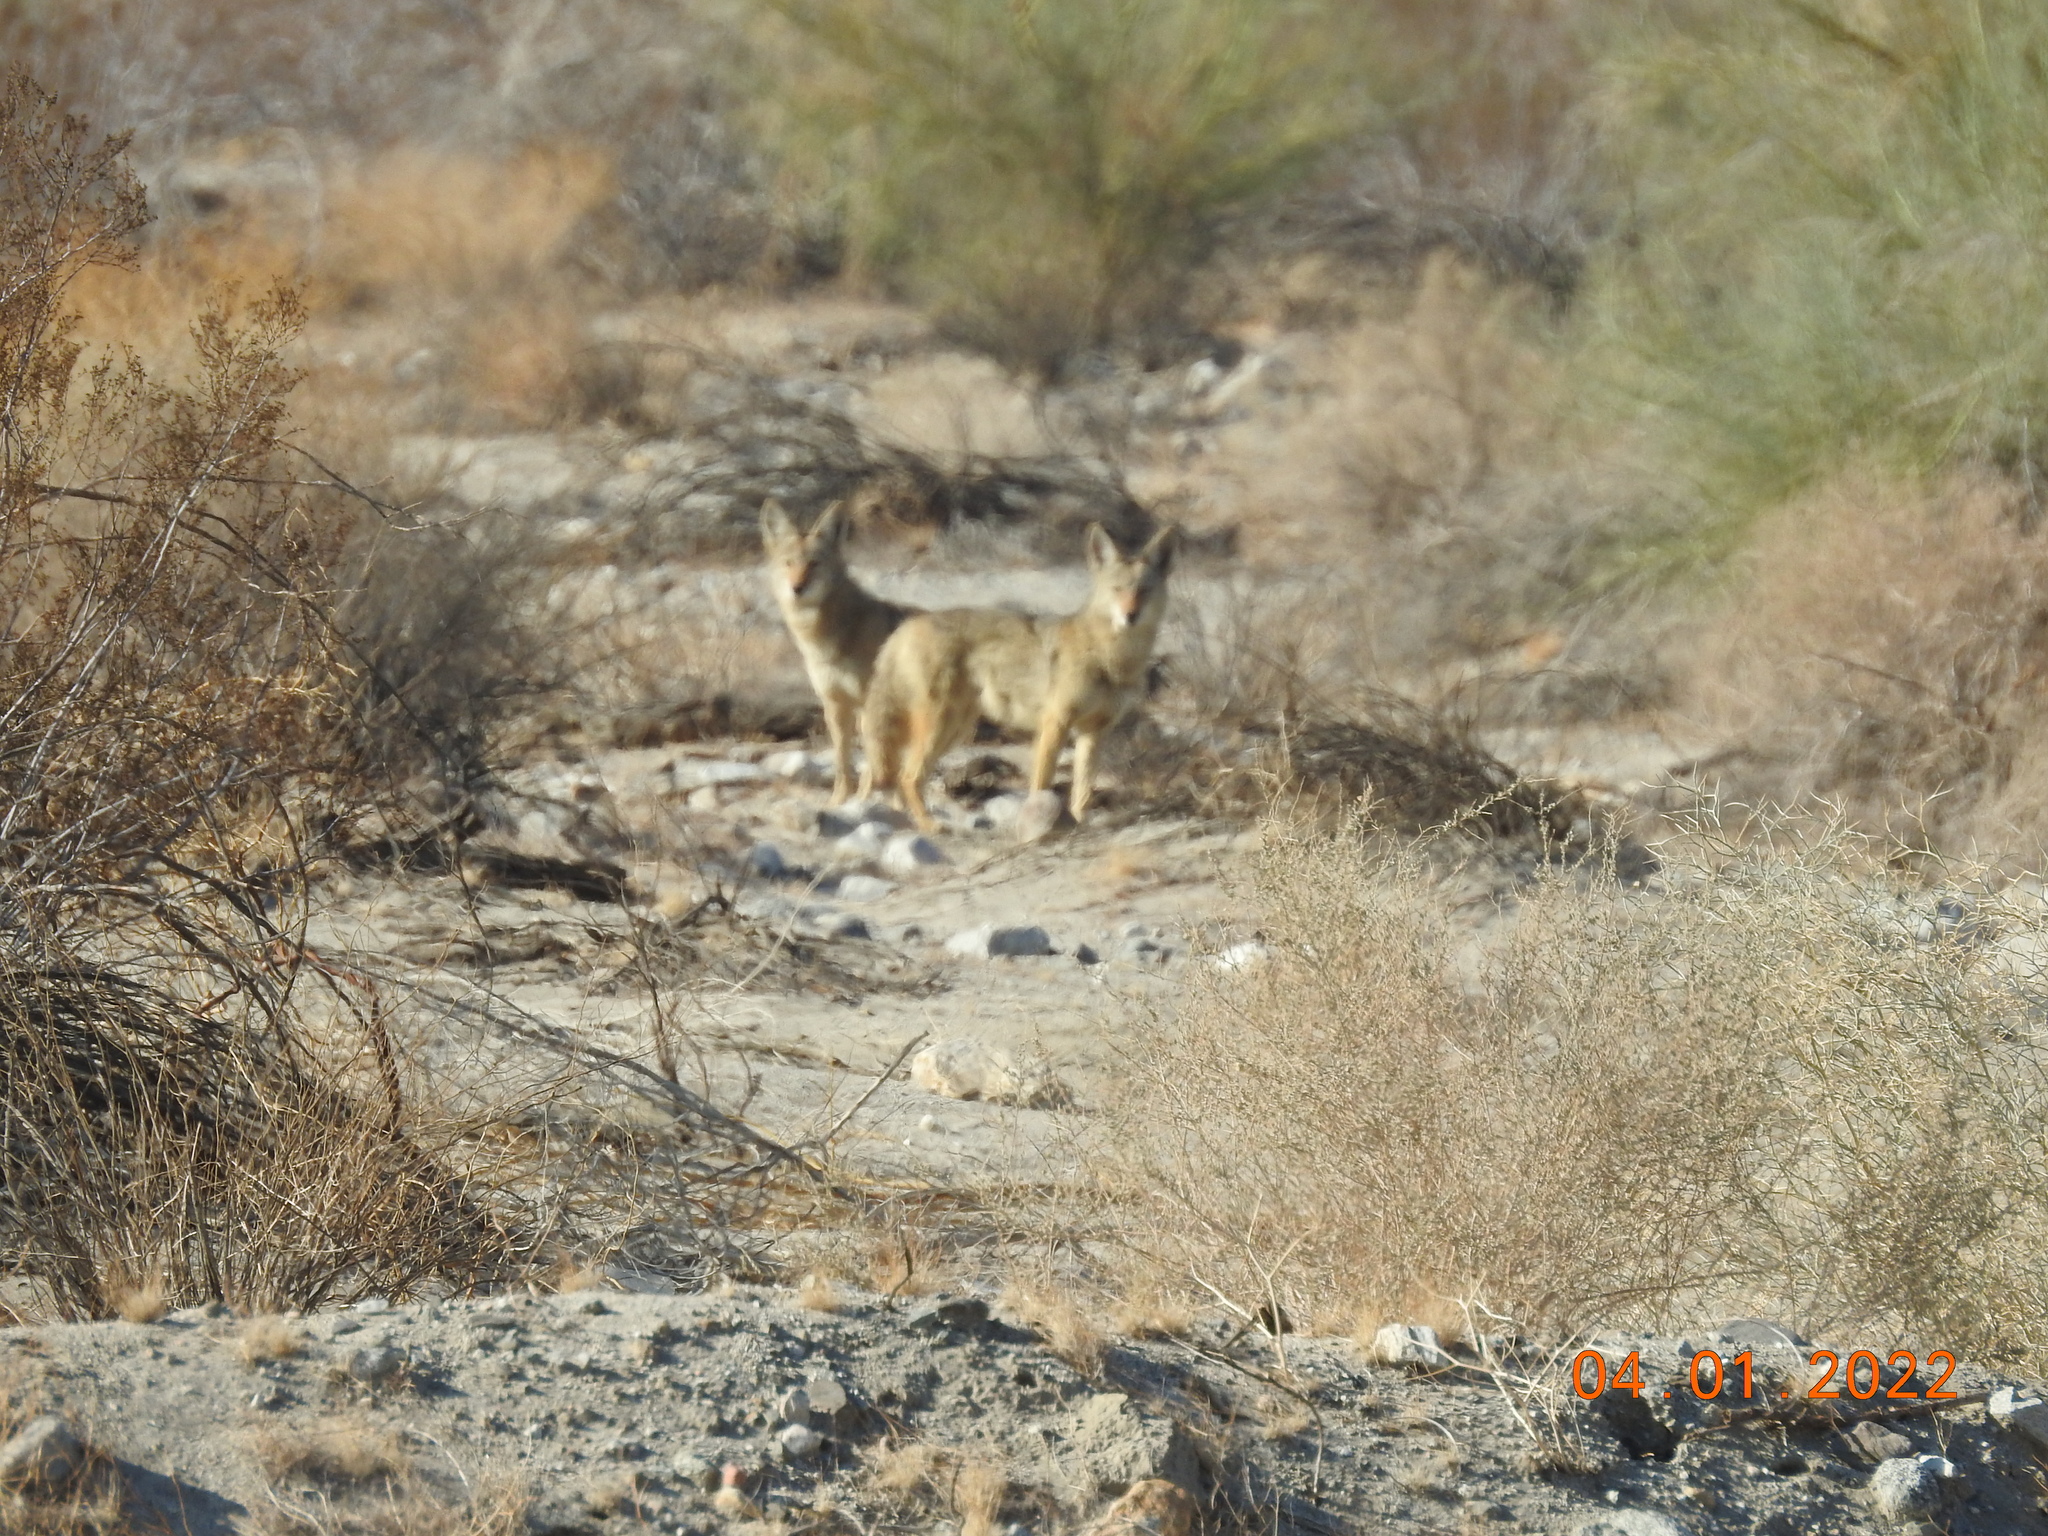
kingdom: Animalia
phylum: Chordata
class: Mammalia
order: Carnivora
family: Canidae
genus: Canis
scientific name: Canis latrans
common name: Coyote
